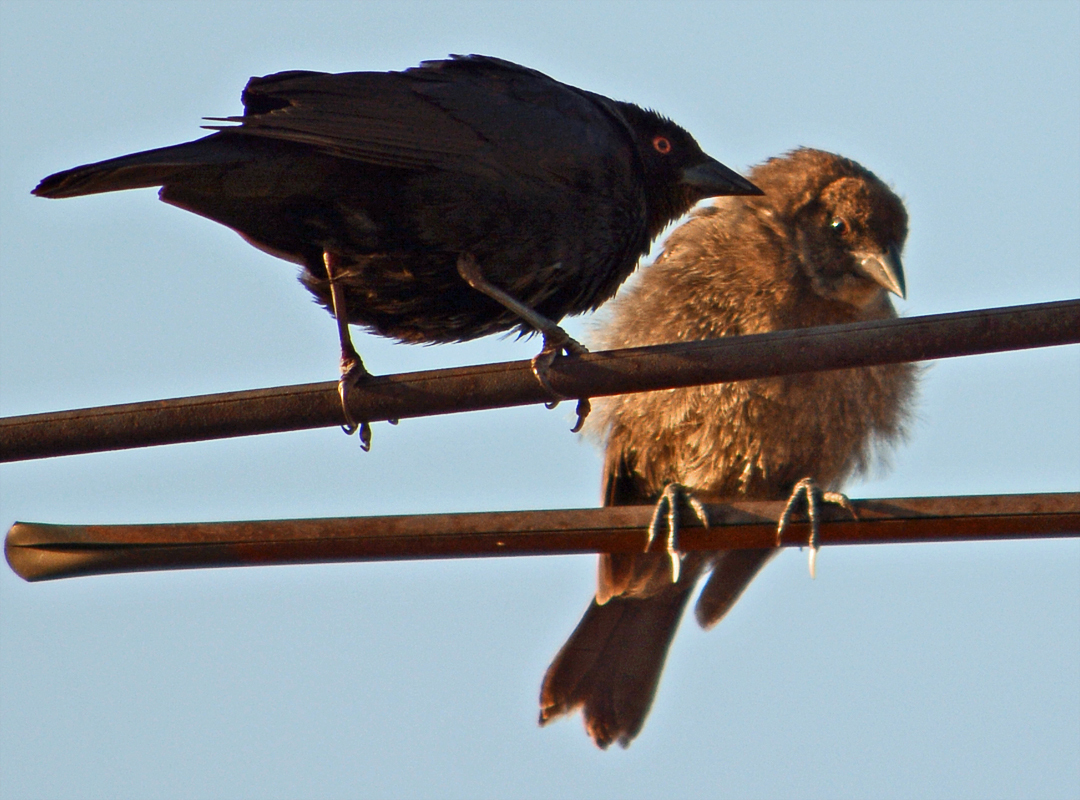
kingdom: Animalia
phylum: Chordata
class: Aves
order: Passeriformes
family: Icteridae
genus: Molothrus
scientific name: Molothrus aeneus
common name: Bronzed cowbird
